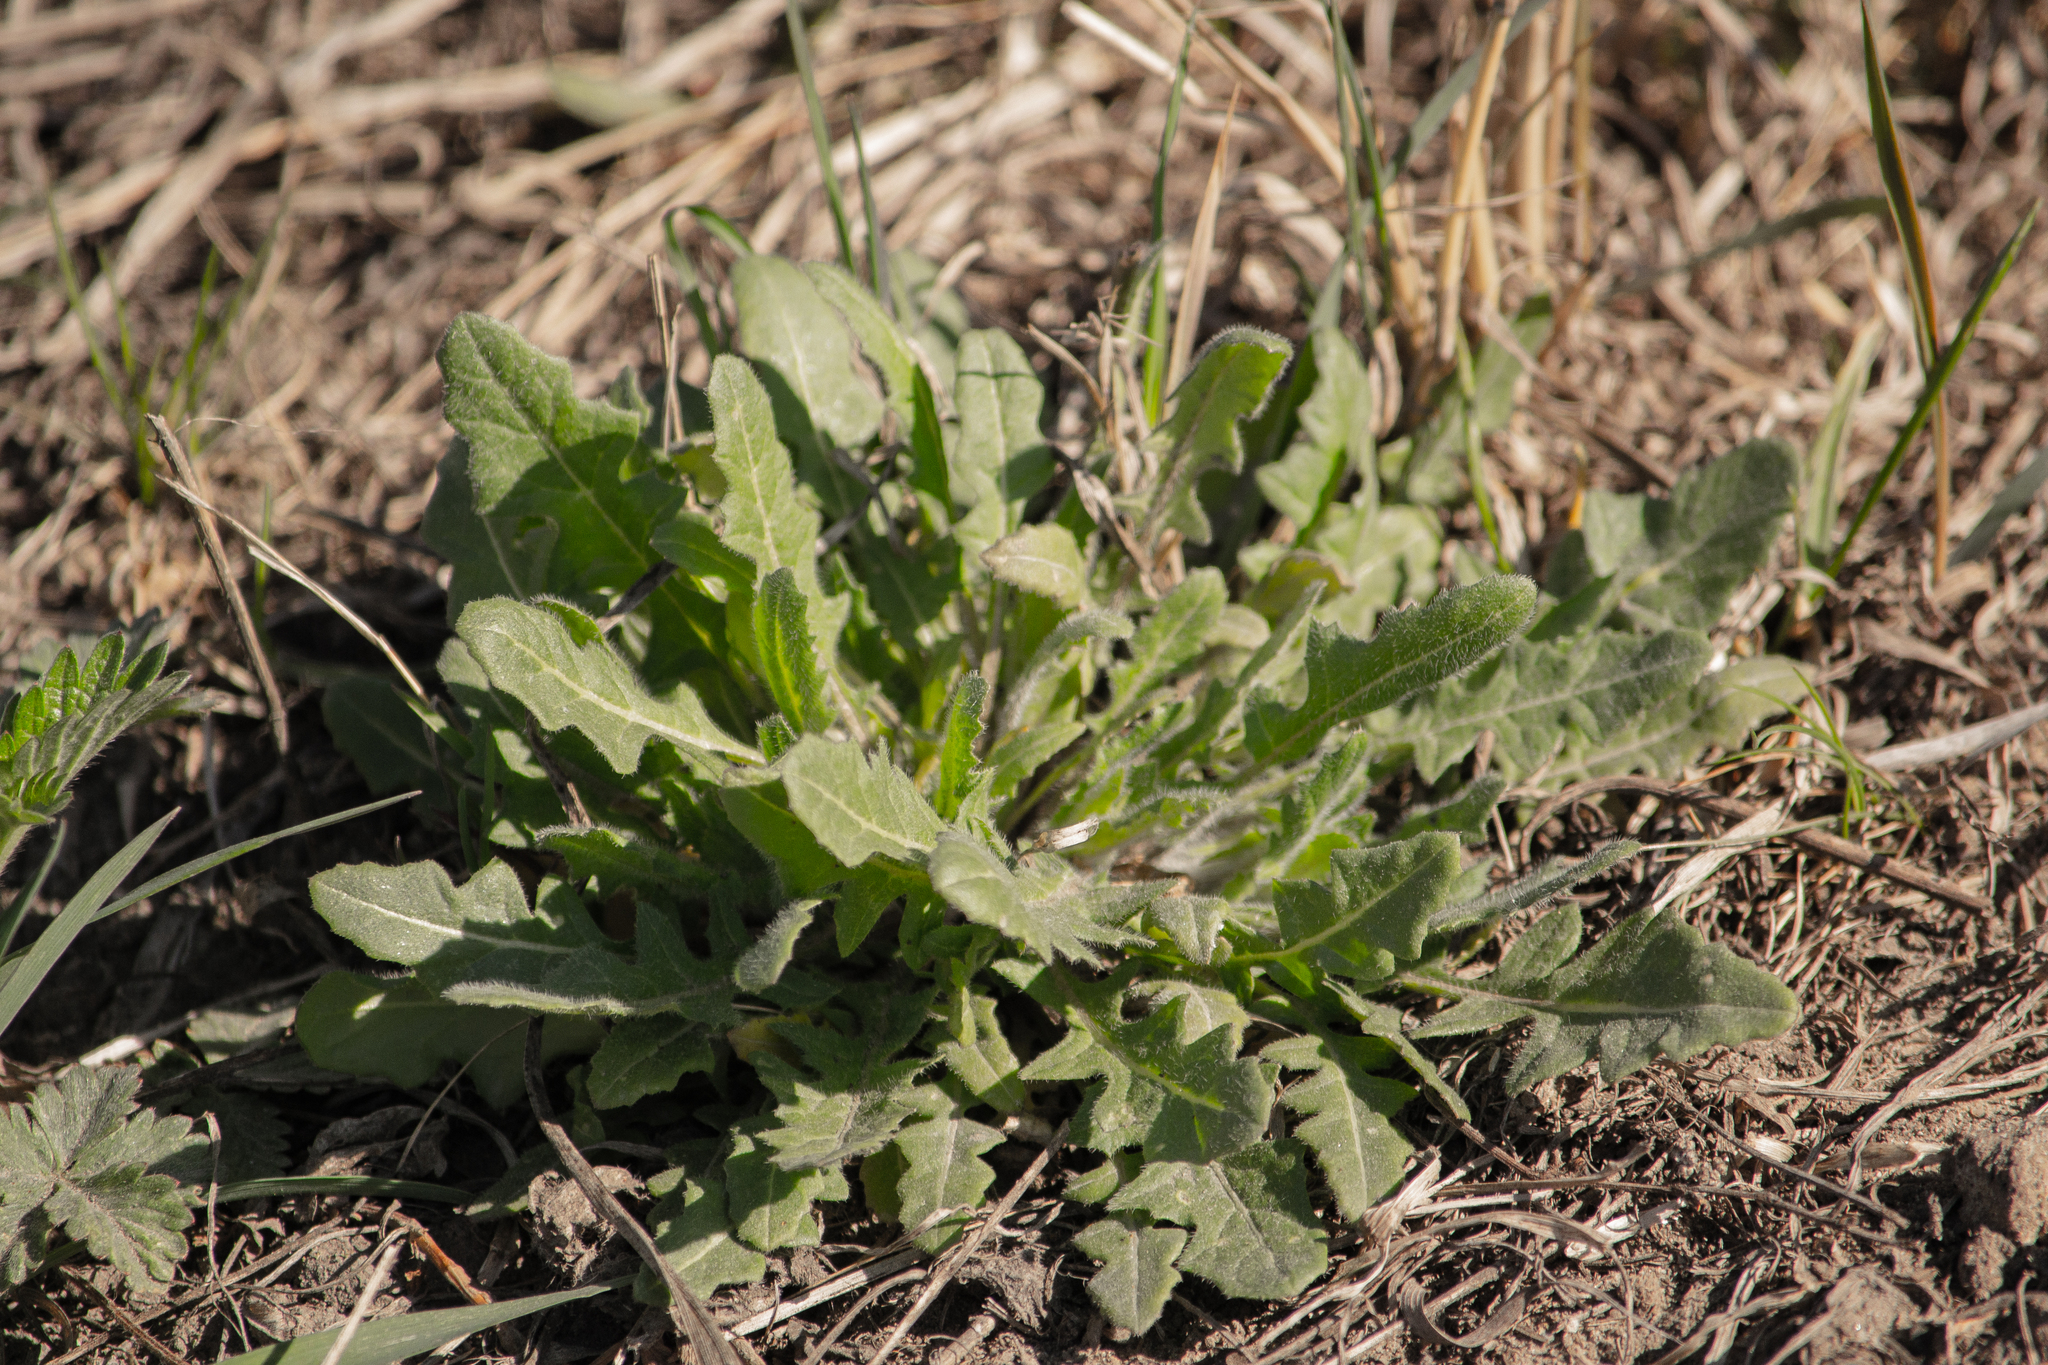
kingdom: Plantae
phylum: Tracheophyta
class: Magnoliopsida
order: Brassicales
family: Brassicaceae
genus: Sisymbrium
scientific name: Sisymbrium loeselii
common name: False london-rocket
